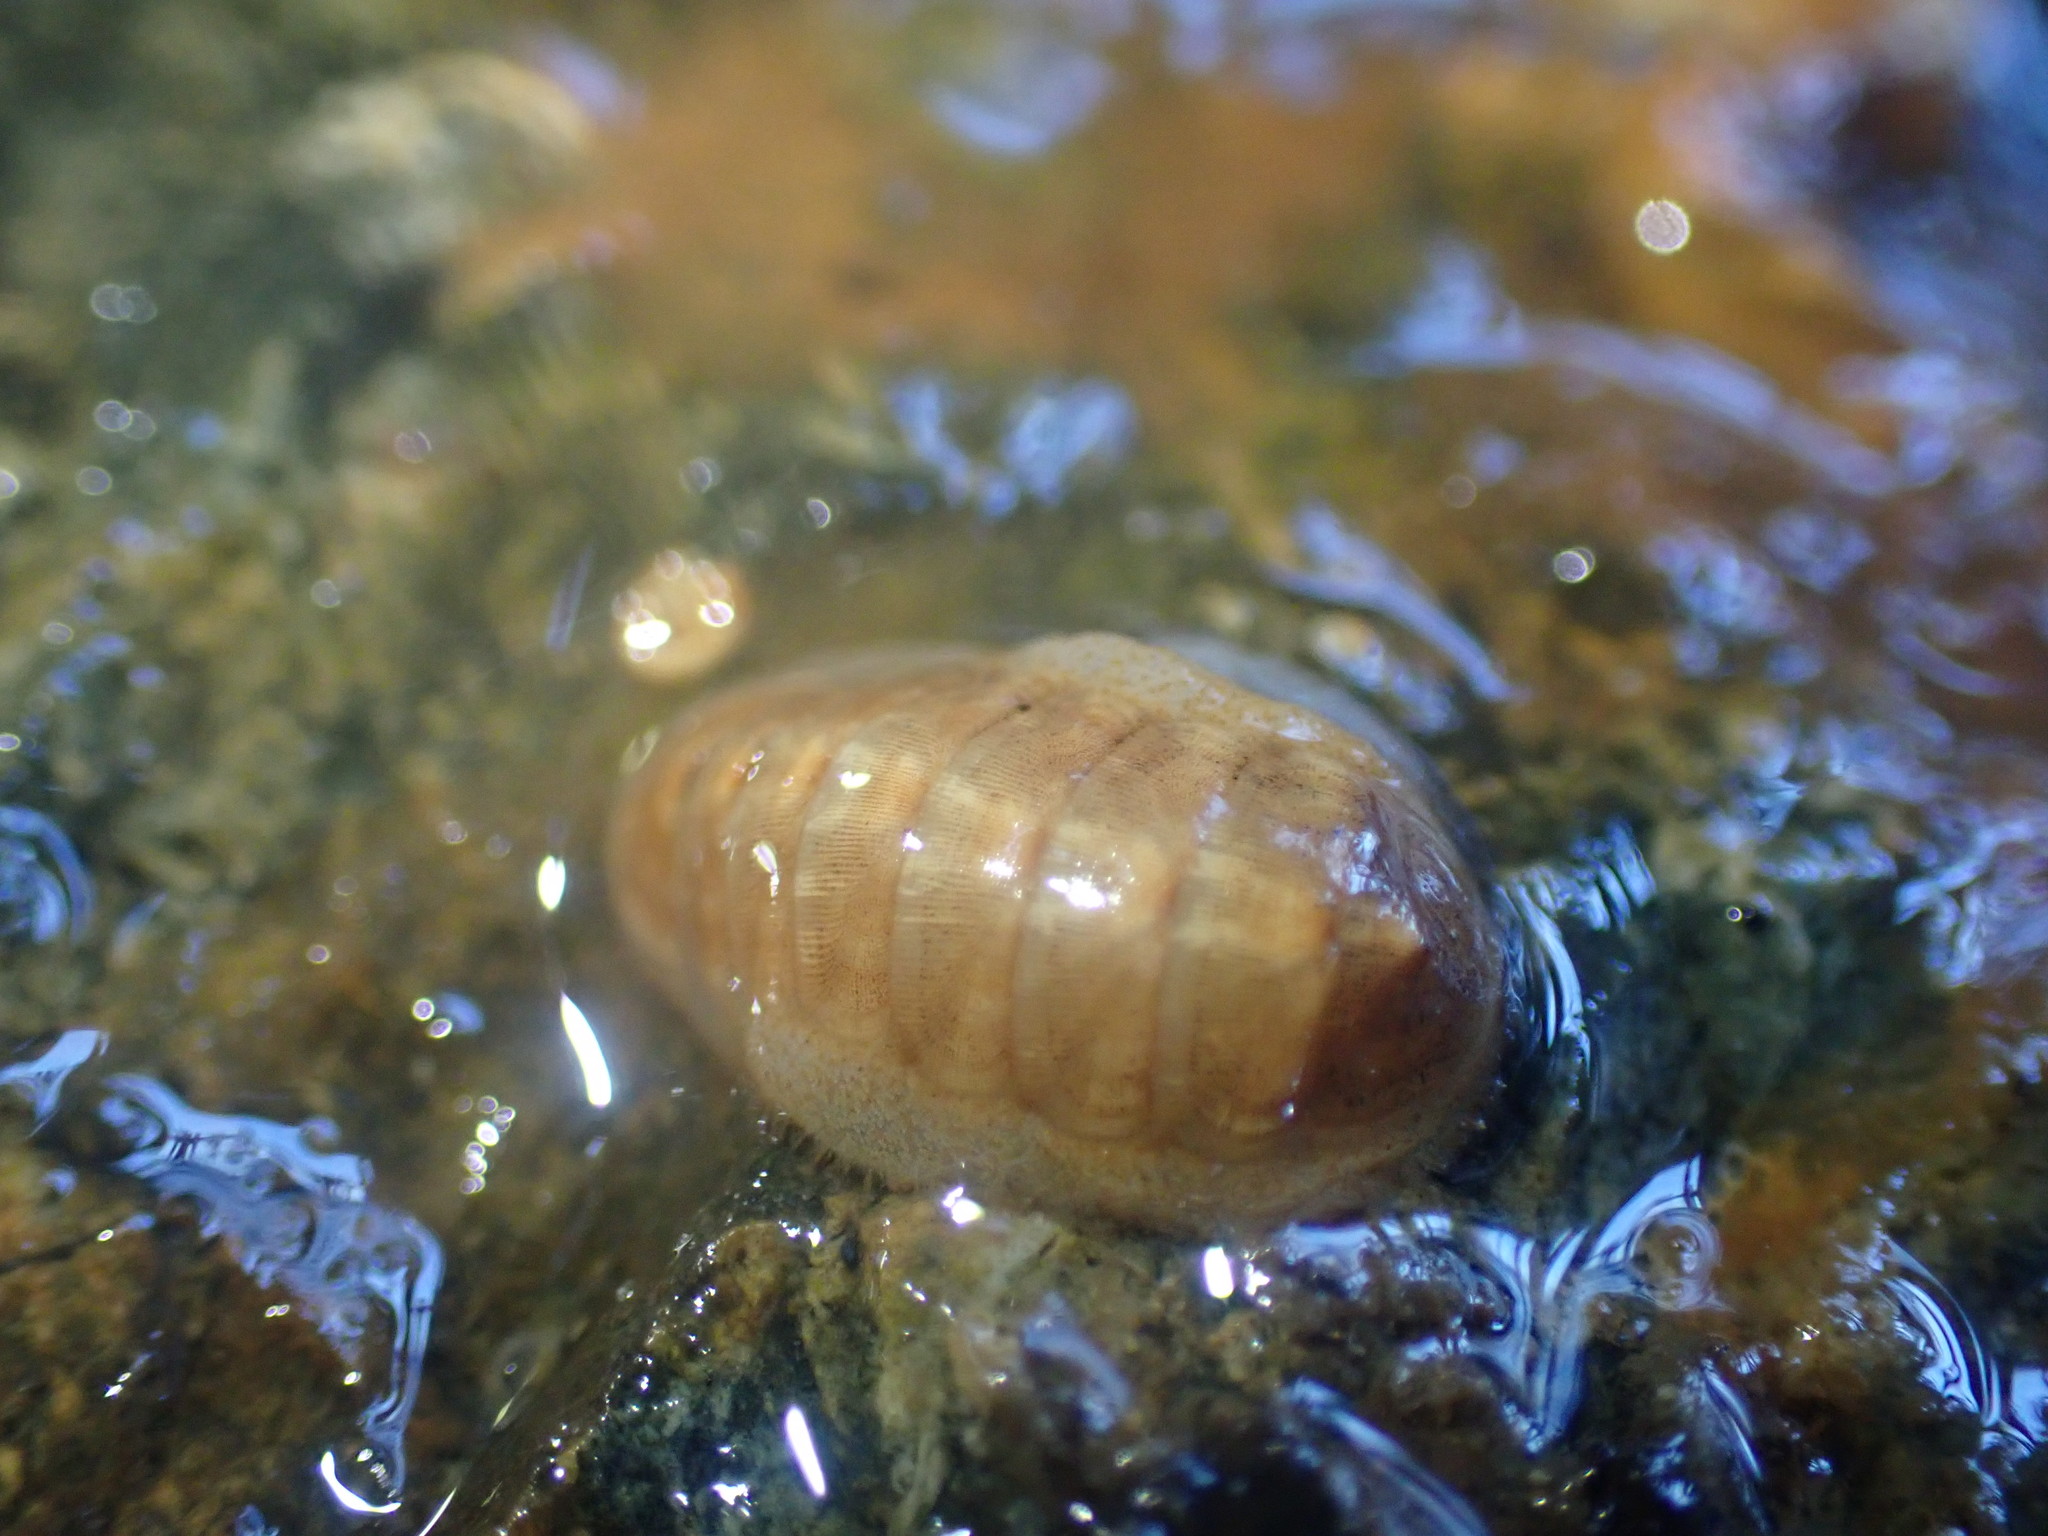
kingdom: Animalia
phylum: Mollusca
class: Polyplacophora
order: Lepidopleurida
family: Leptochitonidae
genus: Leptochiton
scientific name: Leptochiton inquinatus
